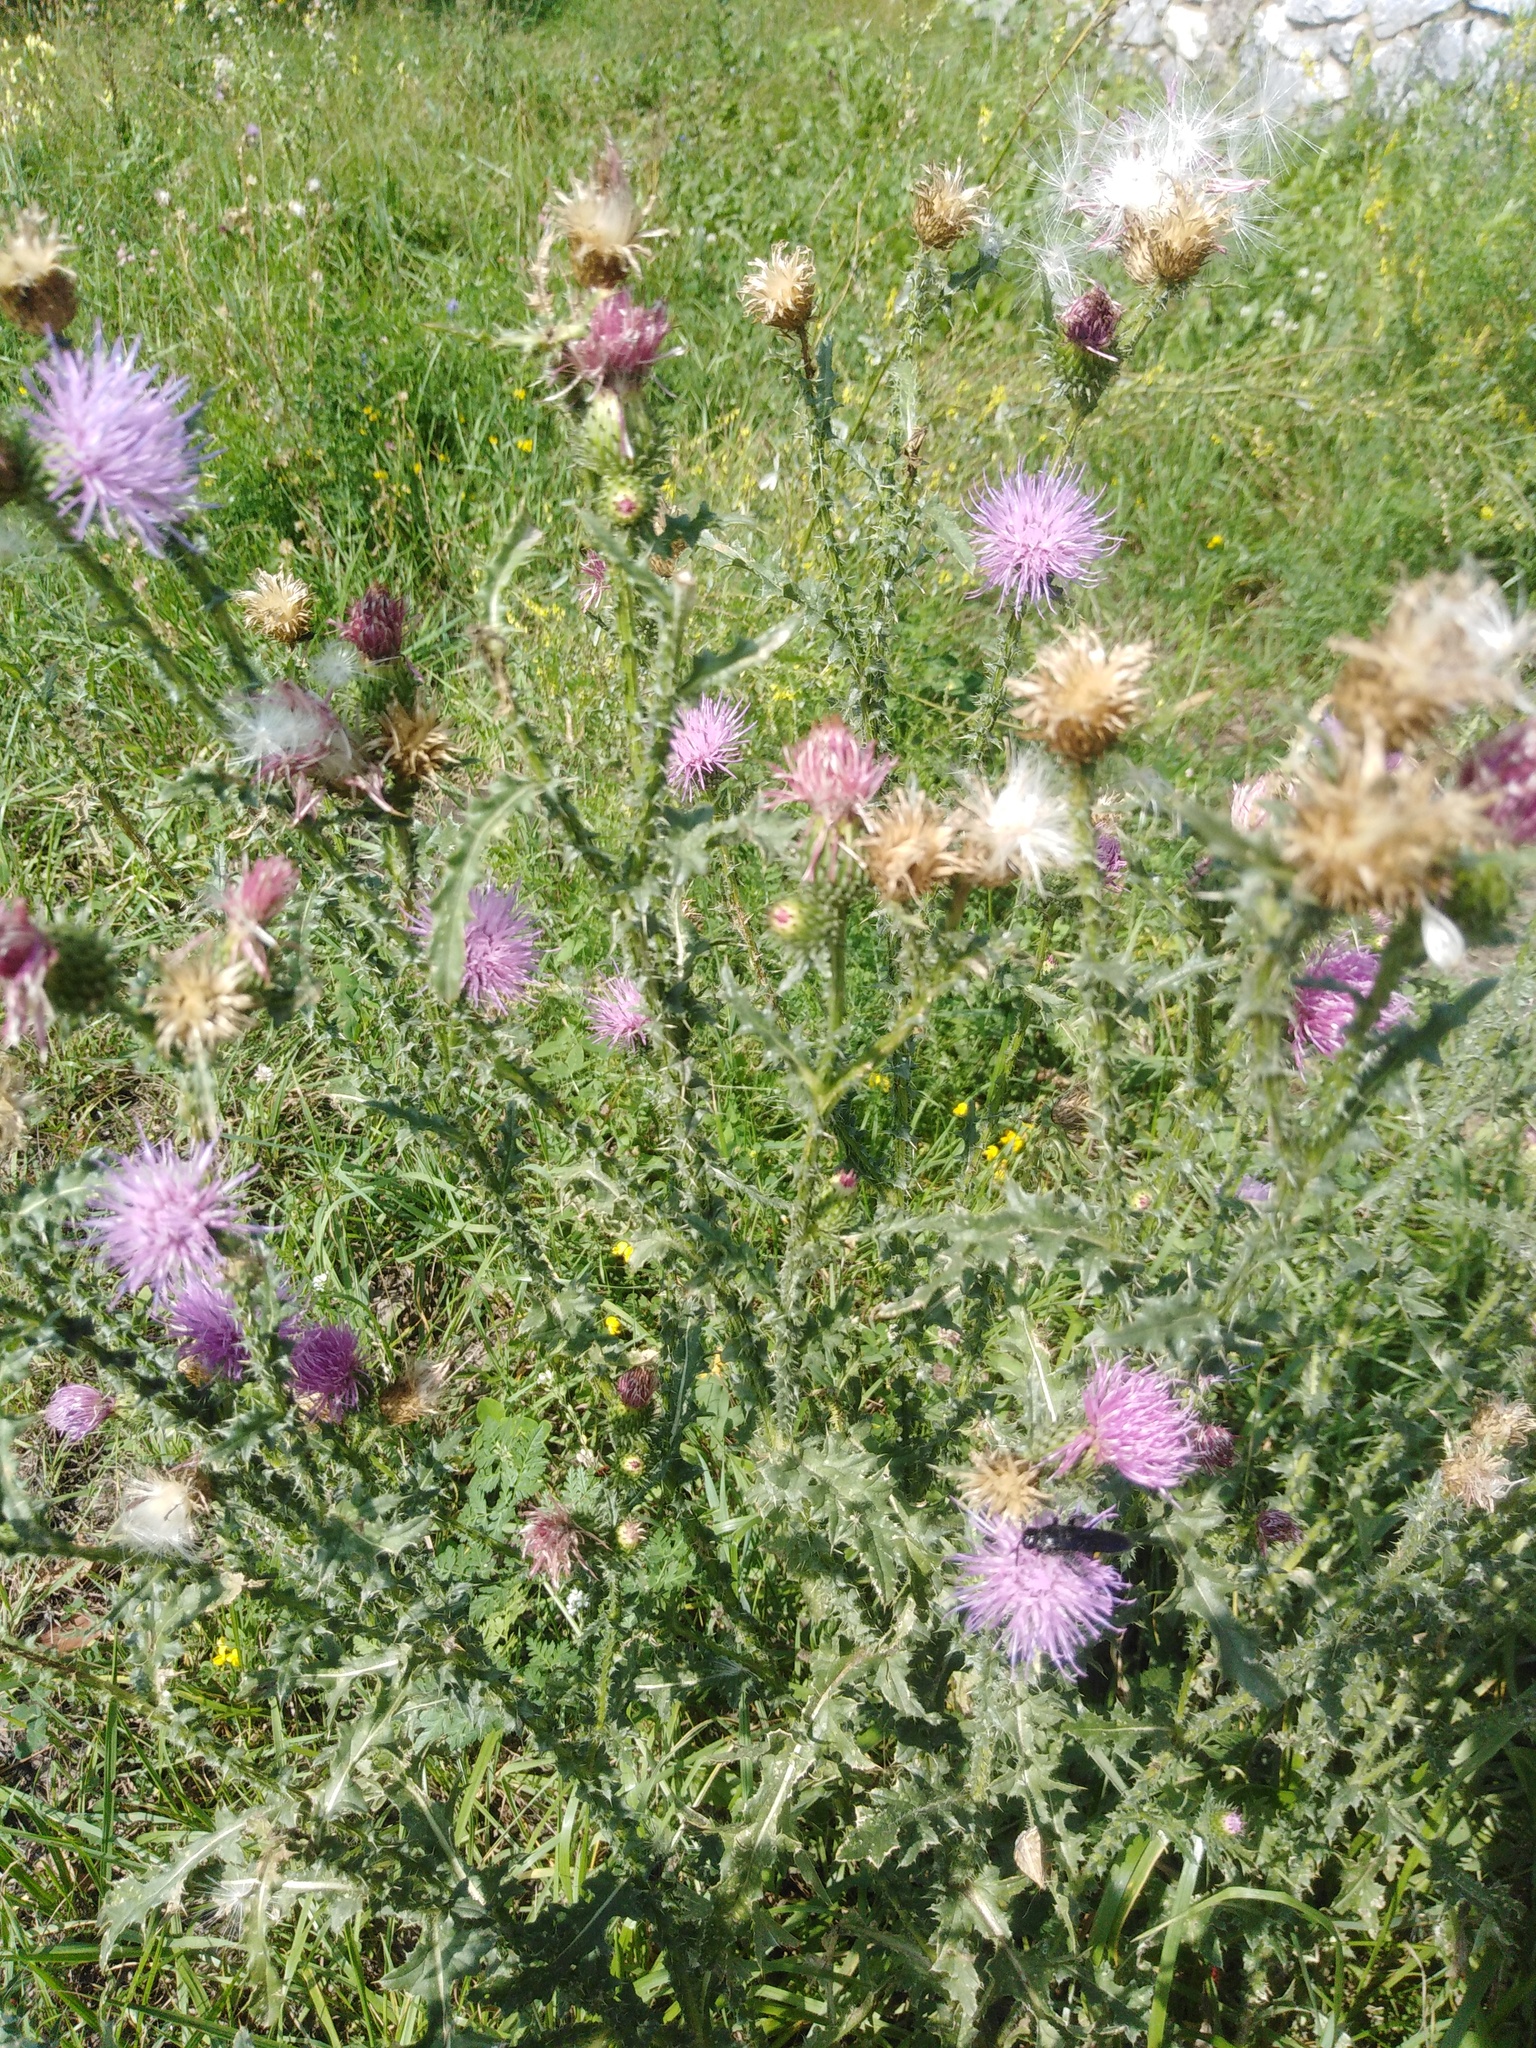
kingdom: Plantae
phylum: Tracheophyta
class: Magnoliopsida
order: Asterales
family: Asteraceae
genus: Carduus
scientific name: Carduus acanthoides
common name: Plumeless thistle
